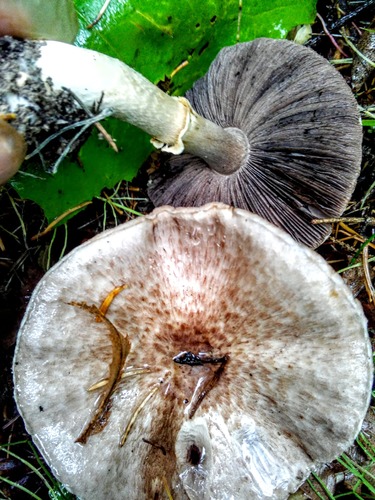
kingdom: Fungi
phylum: Basidiomycota
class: Agaricomycetes
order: Agaricales
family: Agaricaceae
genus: Agaricus
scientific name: Agaricus sylvaticus
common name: Blushing wood mushroom
